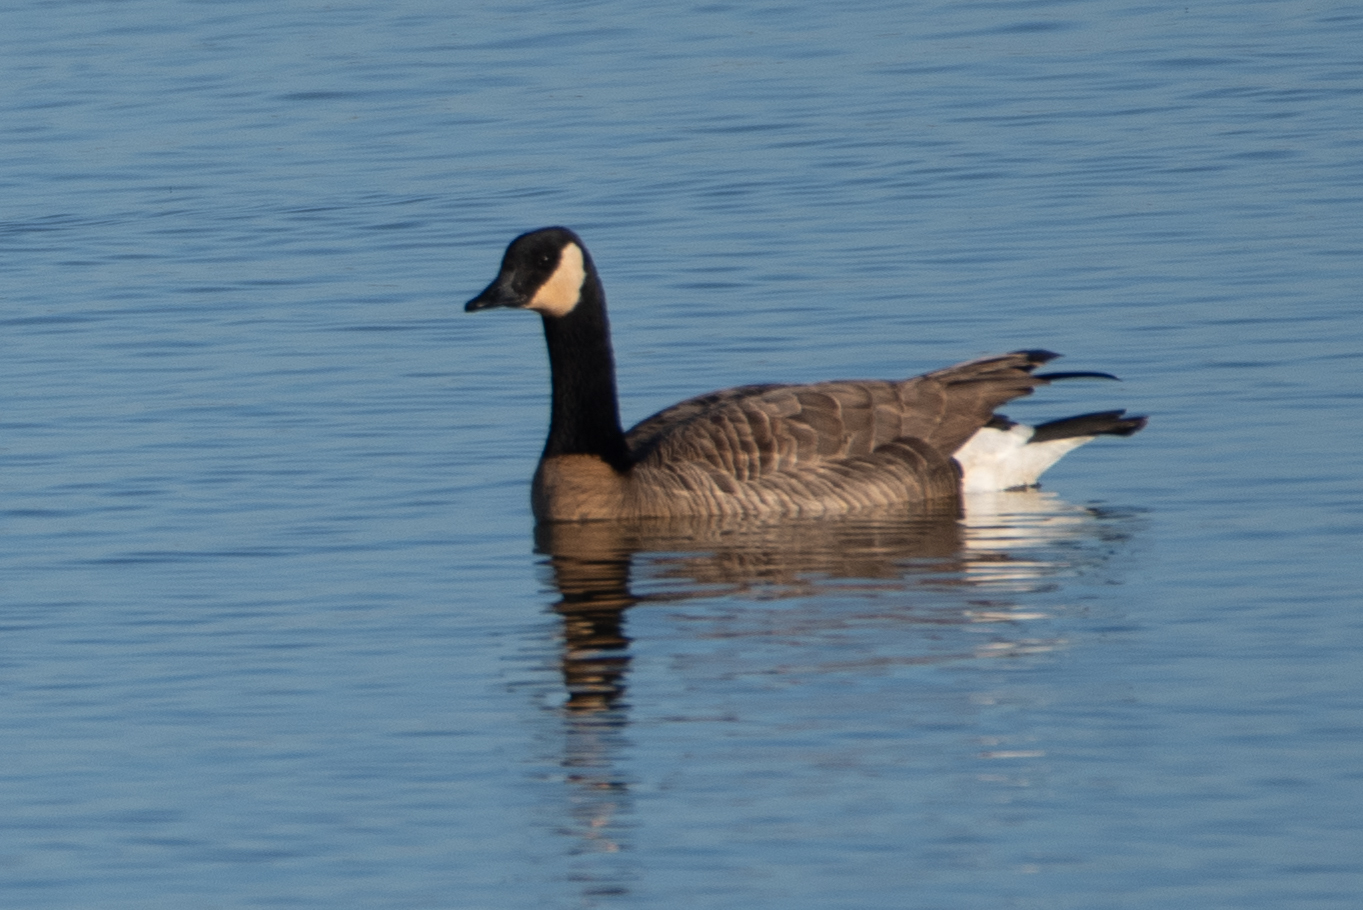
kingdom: Animalia
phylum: Chordata
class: Aves
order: Anseriformes
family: Anatidae
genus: Branta
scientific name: Branta canadensis
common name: Canada goose
